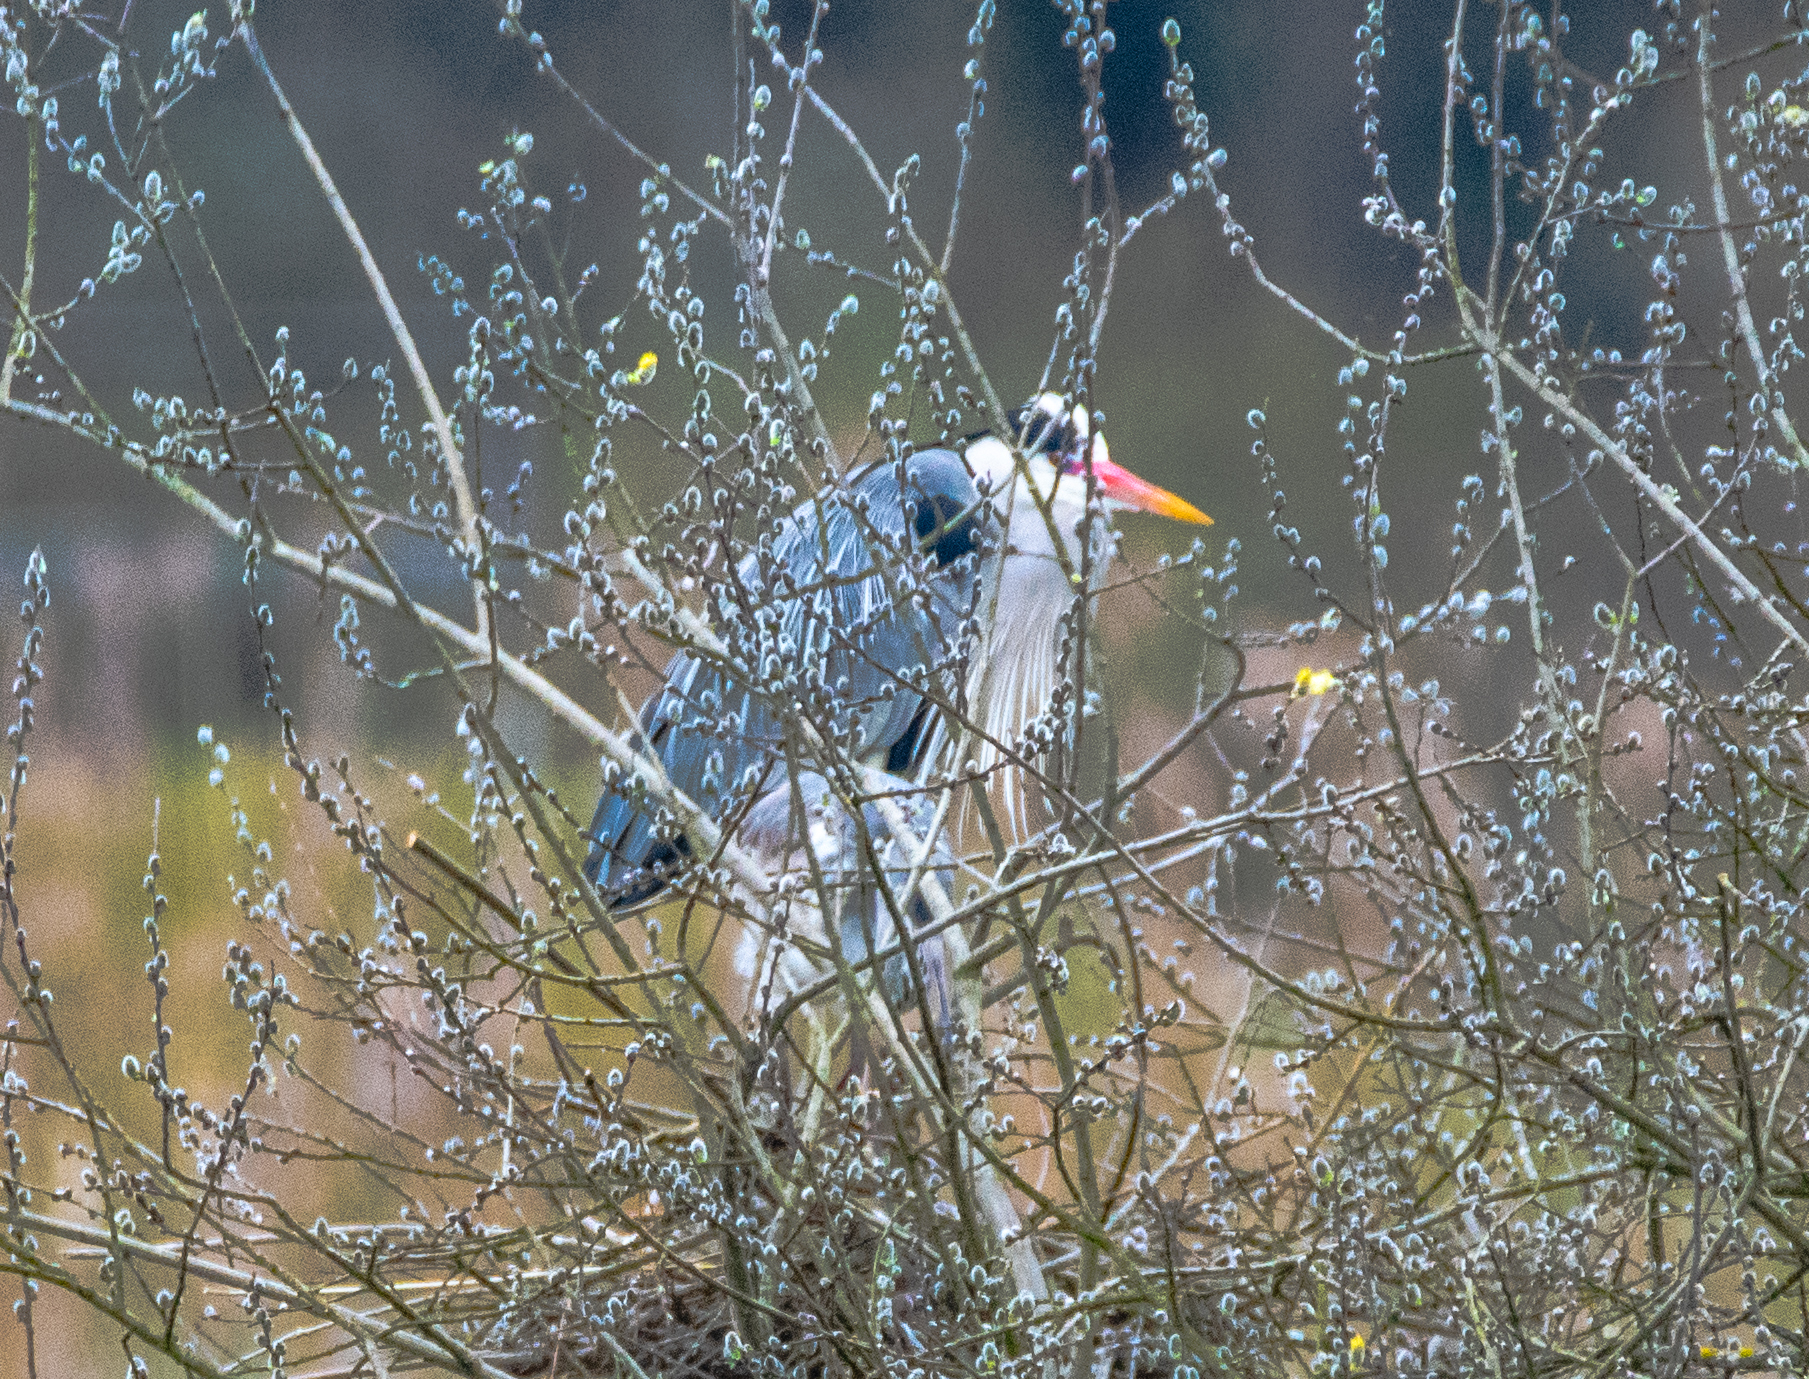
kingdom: Animalia
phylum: Chordata
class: Aves
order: Pelecaniformes
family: Ardeidae
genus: Ardea
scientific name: Ardea cinerea
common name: Grey heron
